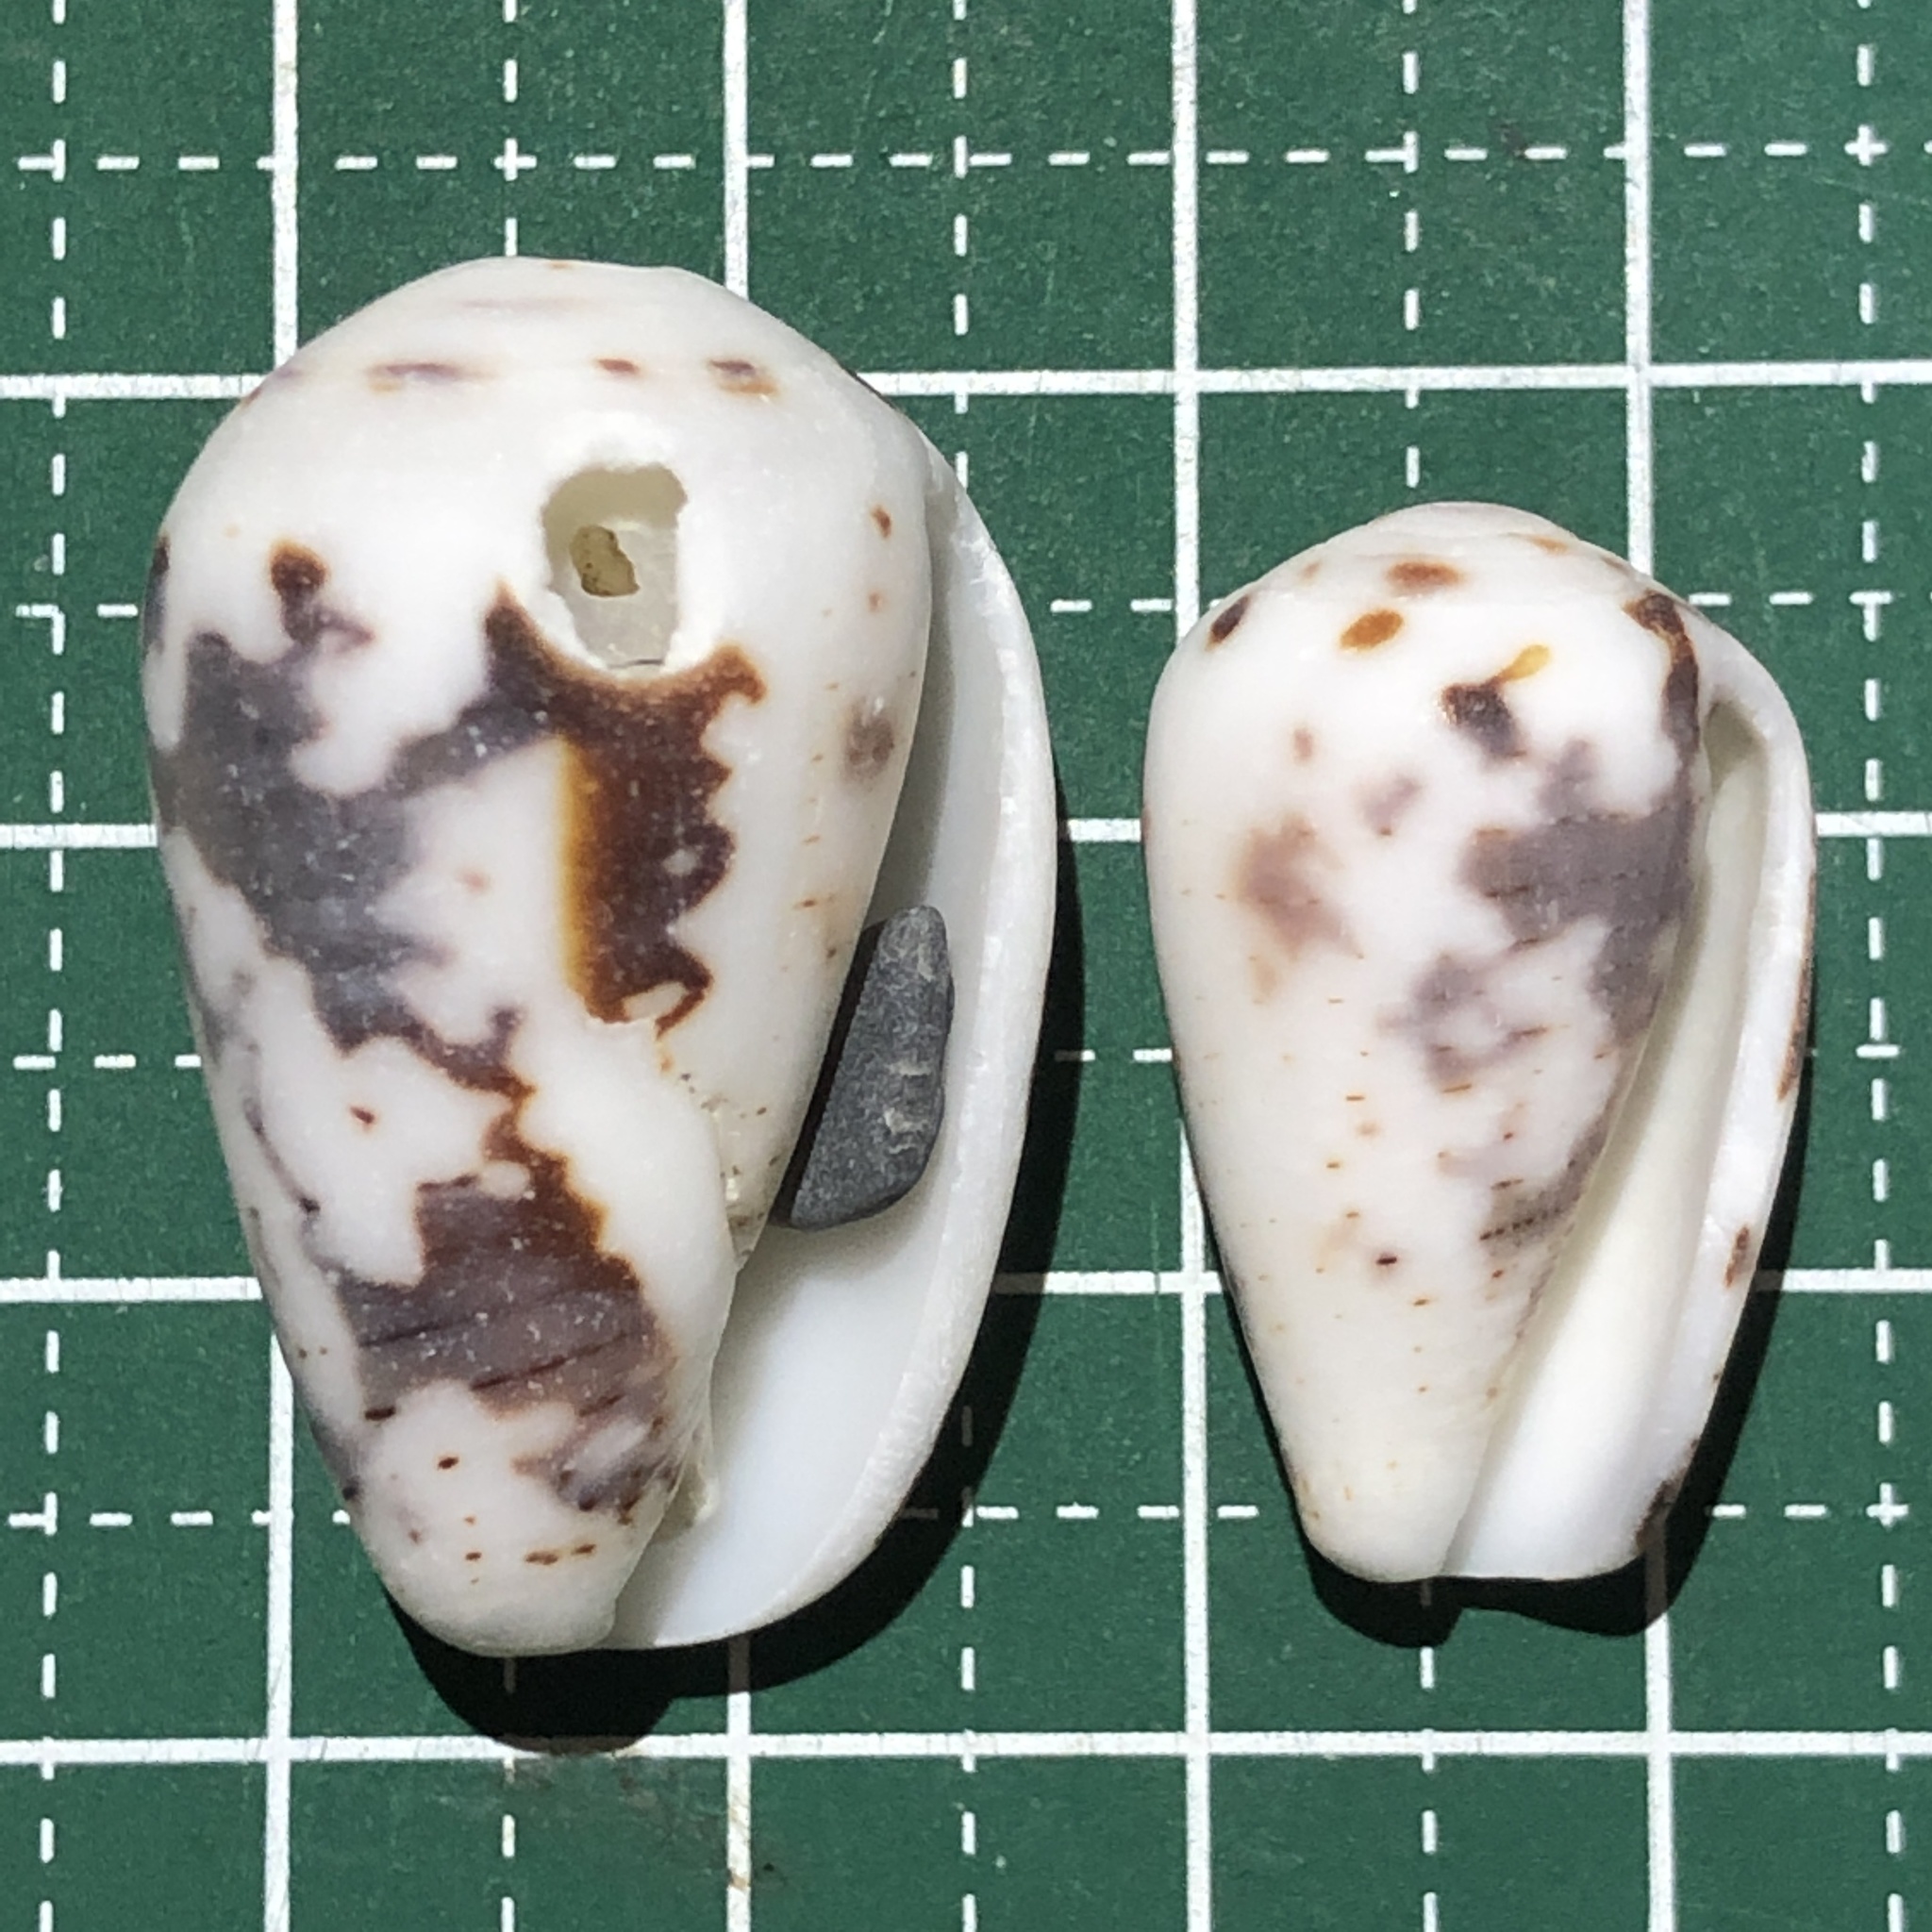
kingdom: Animalia
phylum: Mollusca
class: Gastropoda
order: Neogastropoda
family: Conidae
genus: Conus
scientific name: Conus striolatus
